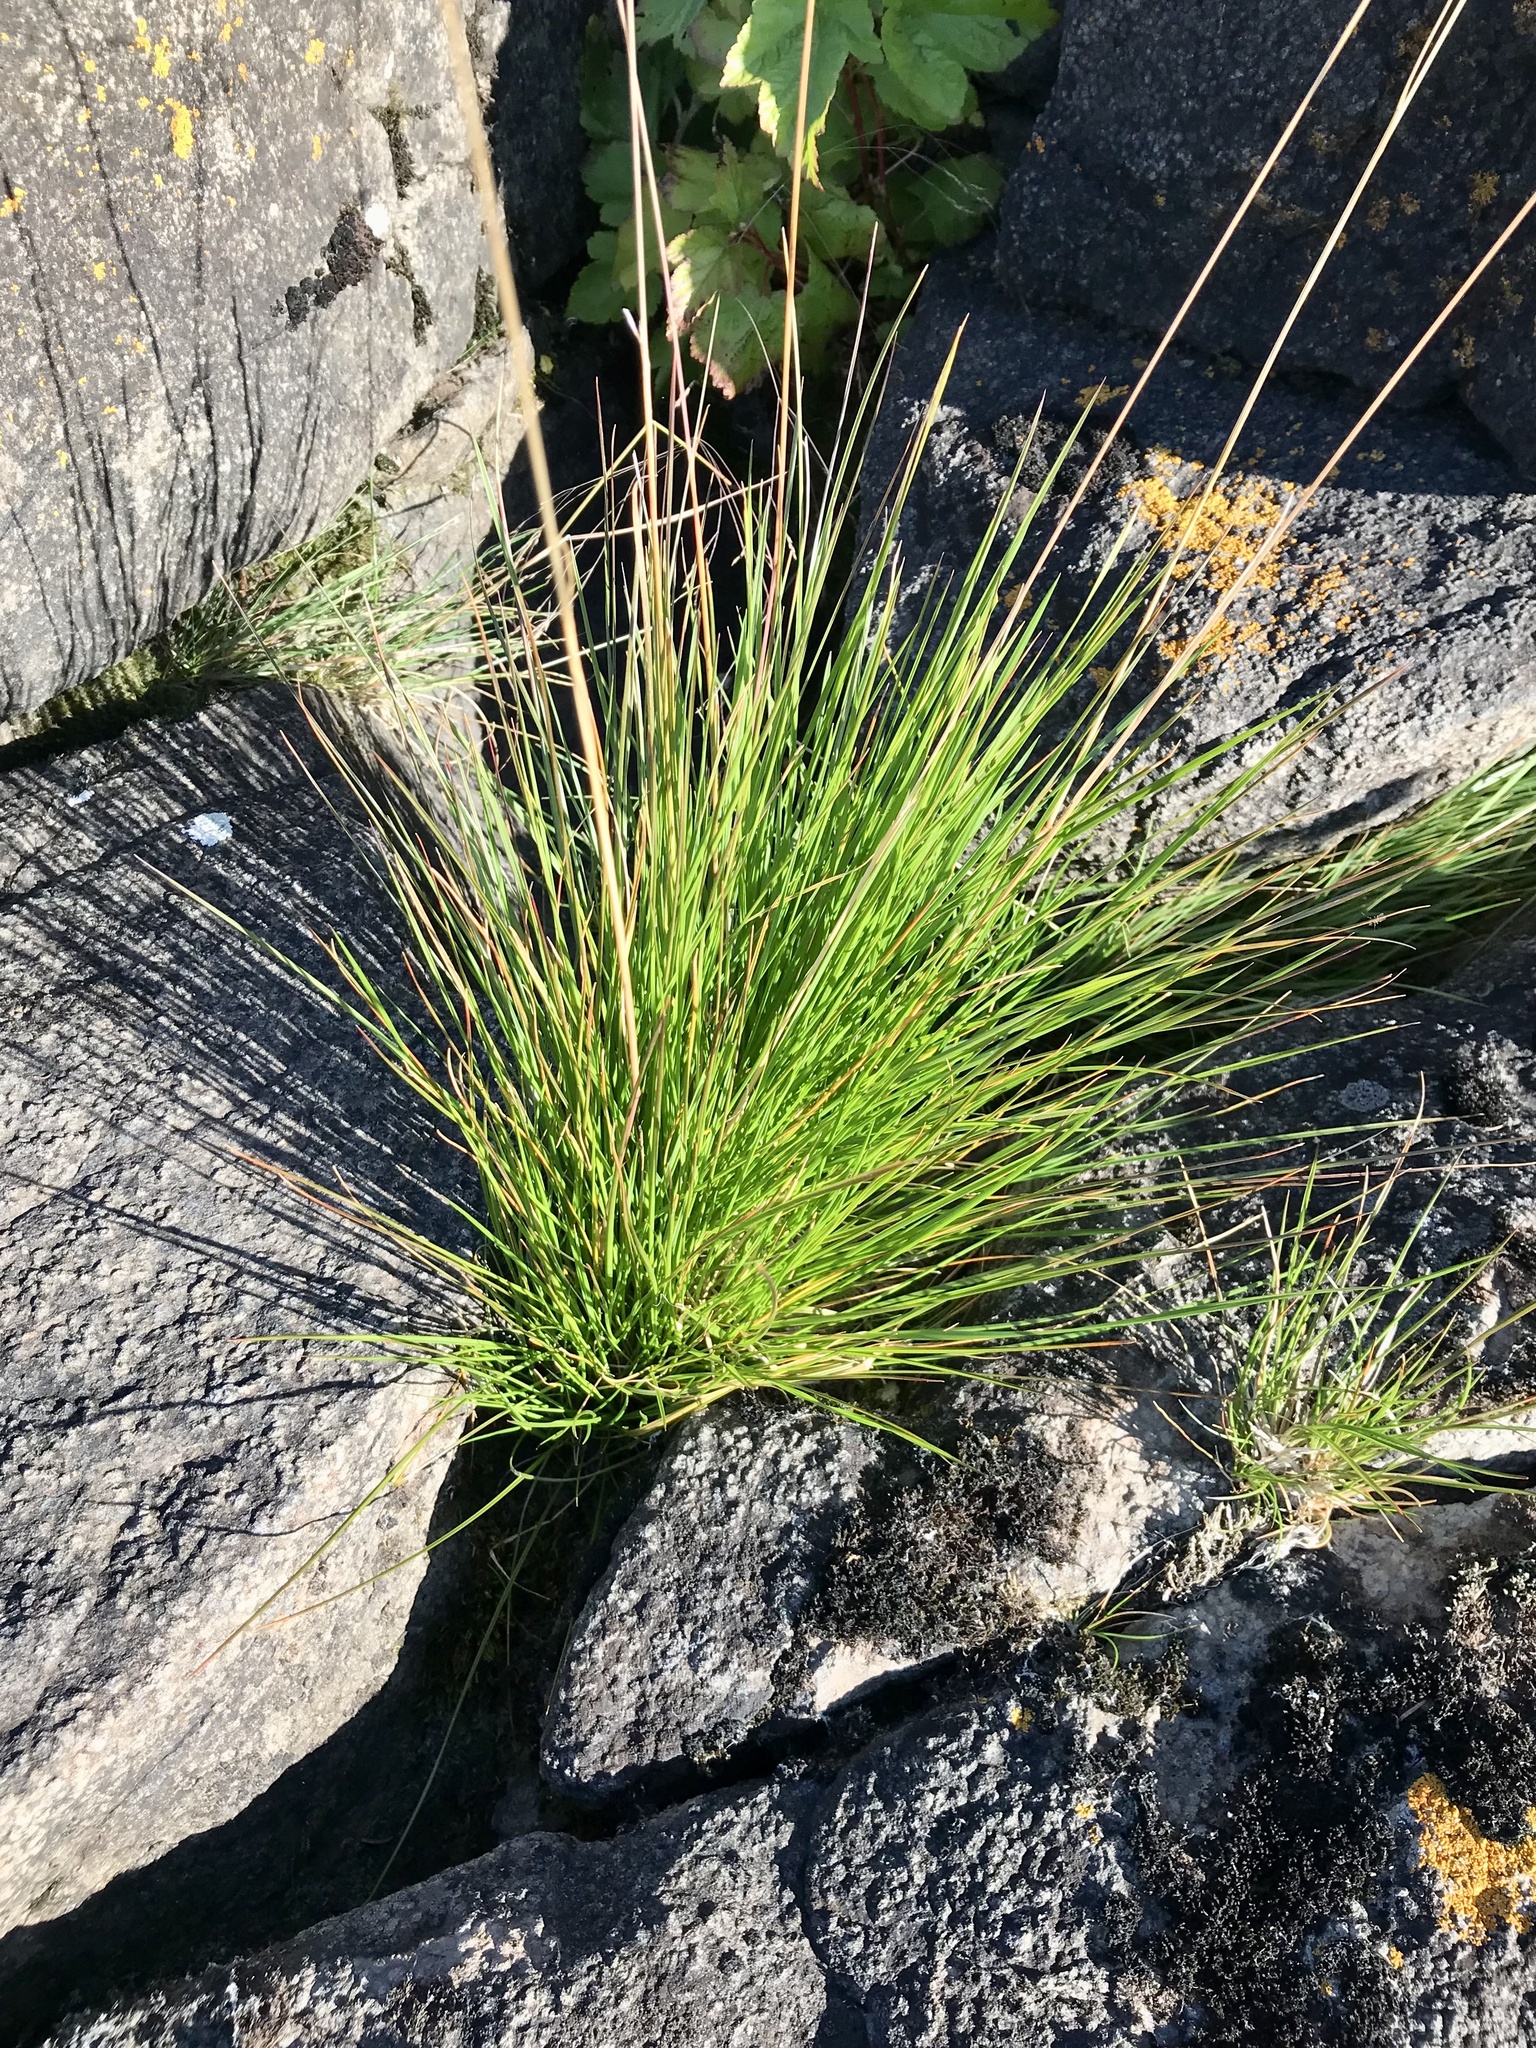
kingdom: Plantae
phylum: Tracheophyta
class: Liliopsida
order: Poales
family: Poaceae
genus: Deschampsia
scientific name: Deschampsia cespitosa
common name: Tufted hair-grass
